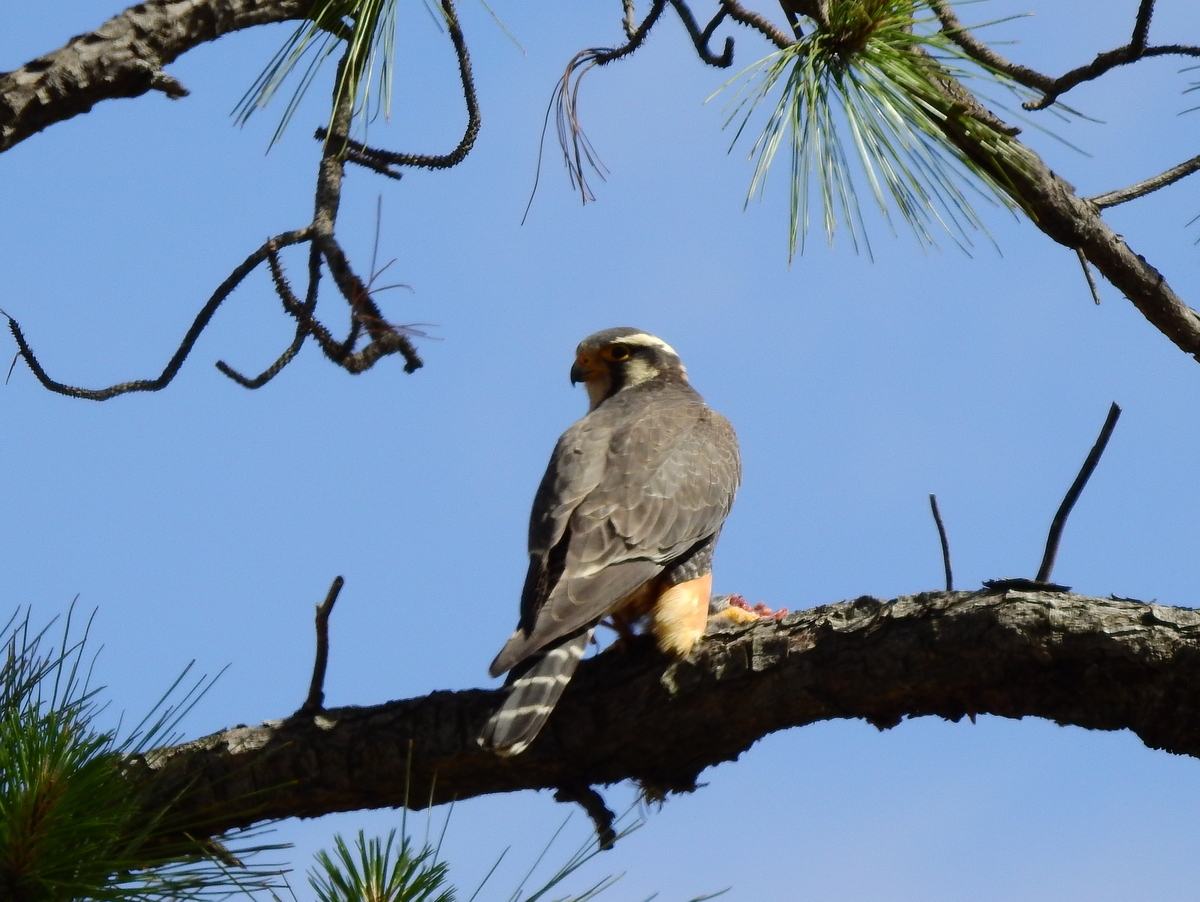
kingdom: Animalia
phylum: Chordata
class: Aves
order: Falconiformes
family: Falconidae
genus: Falco
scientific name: Falco femoralis
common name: Aplomado falcon
